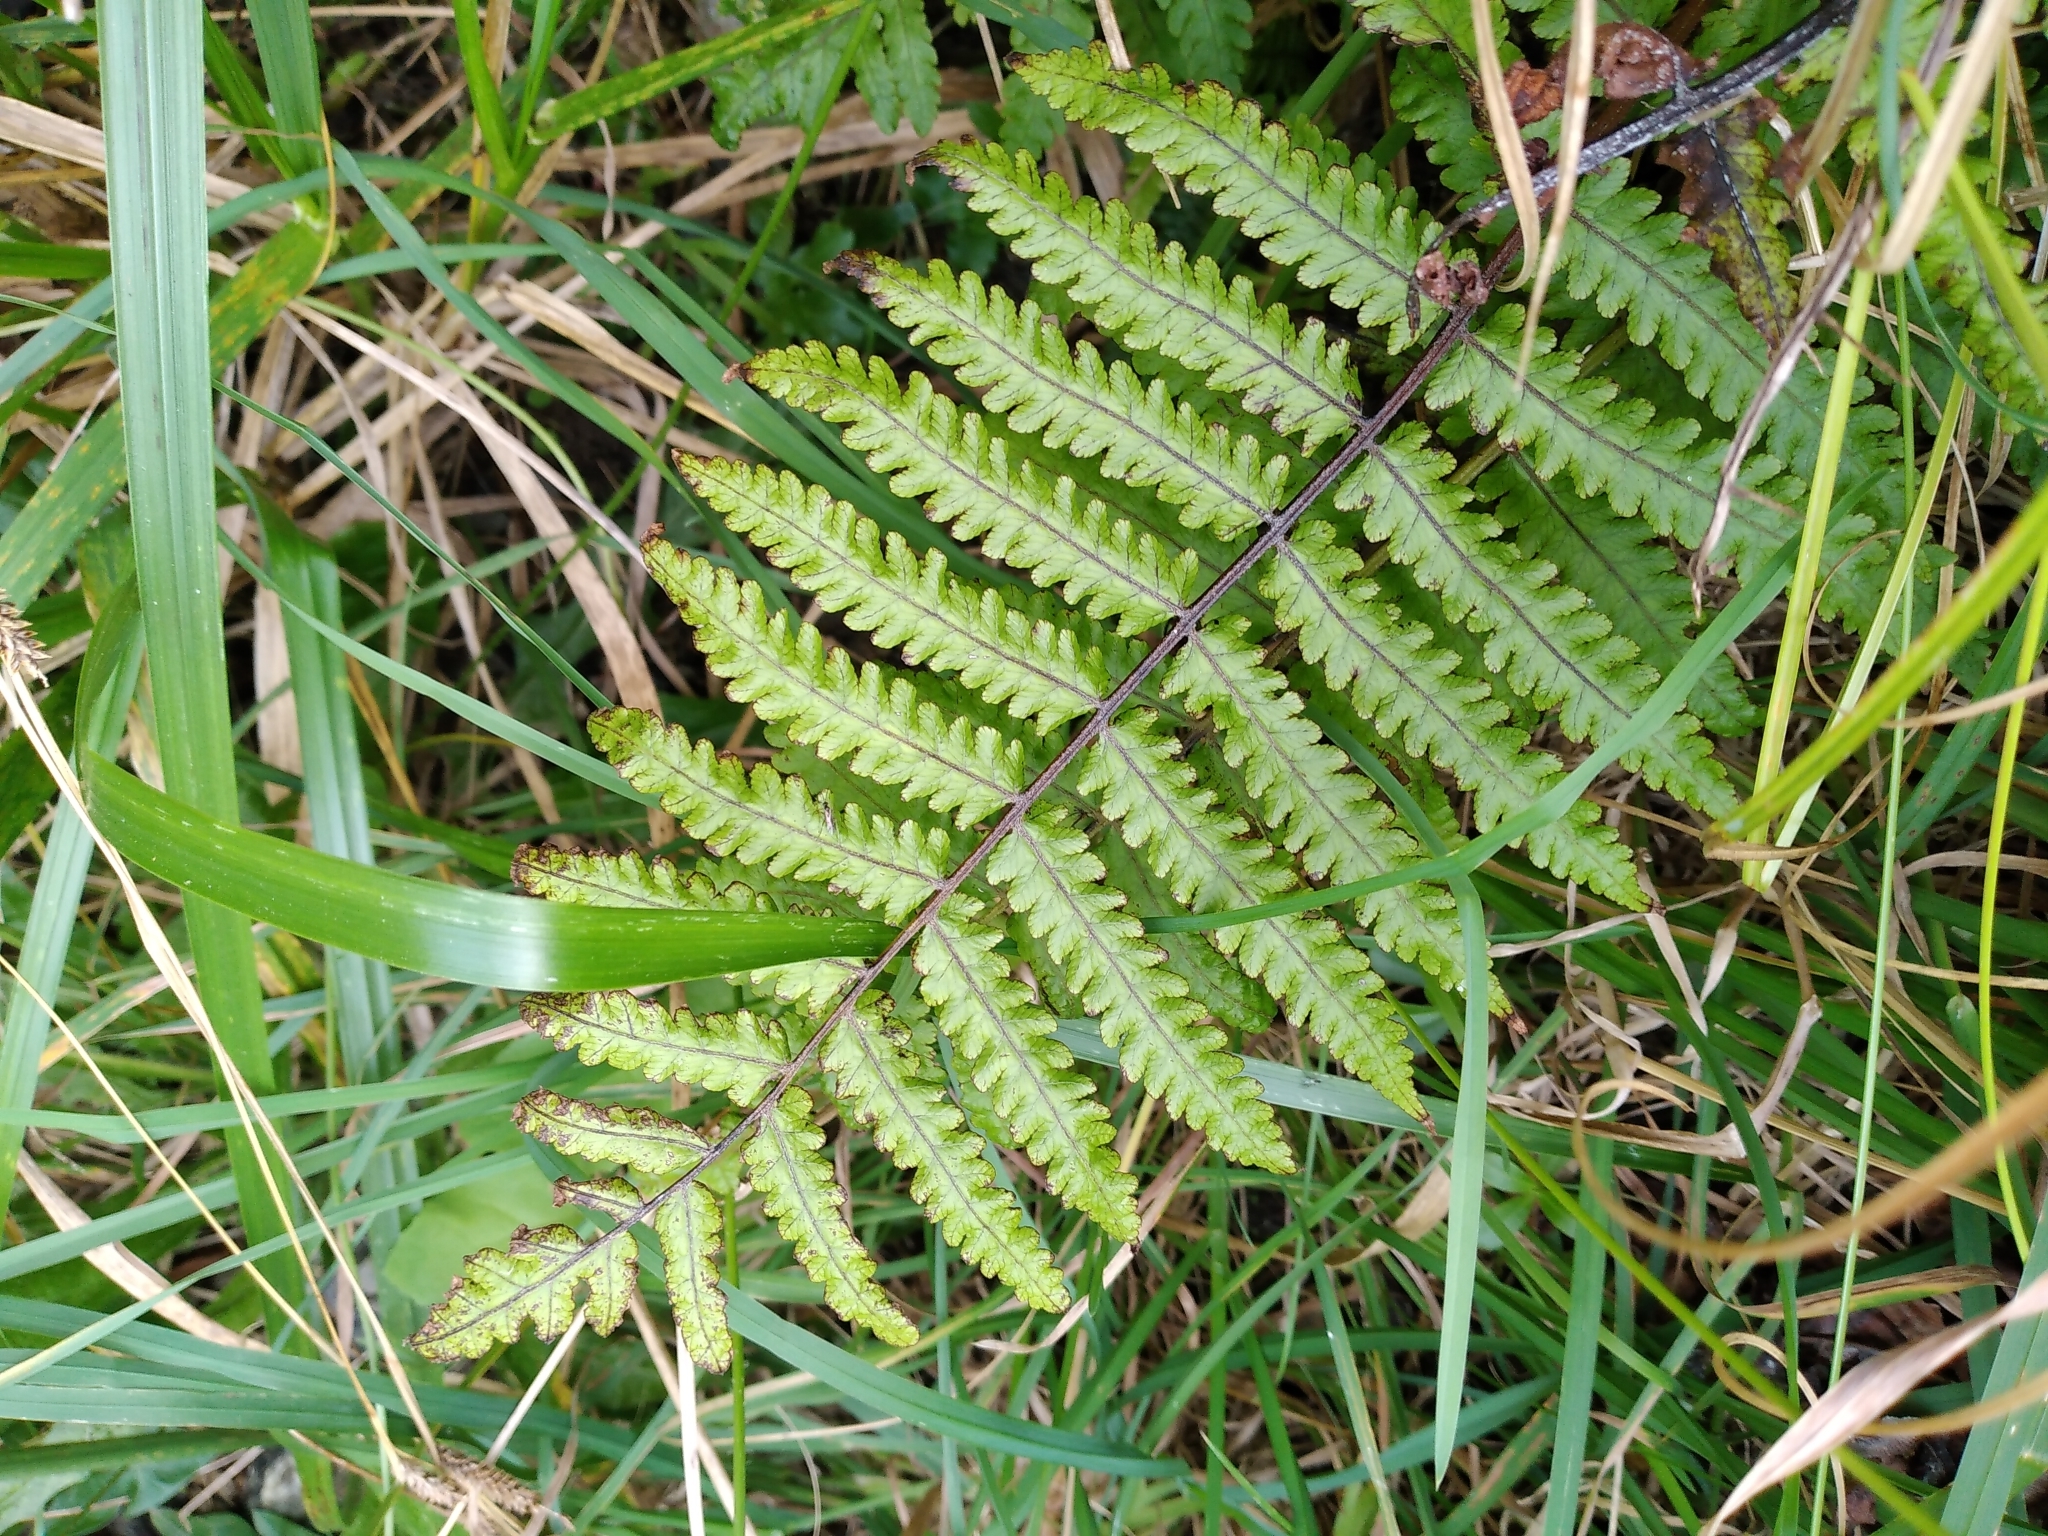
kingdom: Plantae
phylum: Tracheophyta
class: Polypodiopsida
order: Polypodiales
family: Thelypteridaceae
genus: Pakau
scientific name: Pakau pennigera
